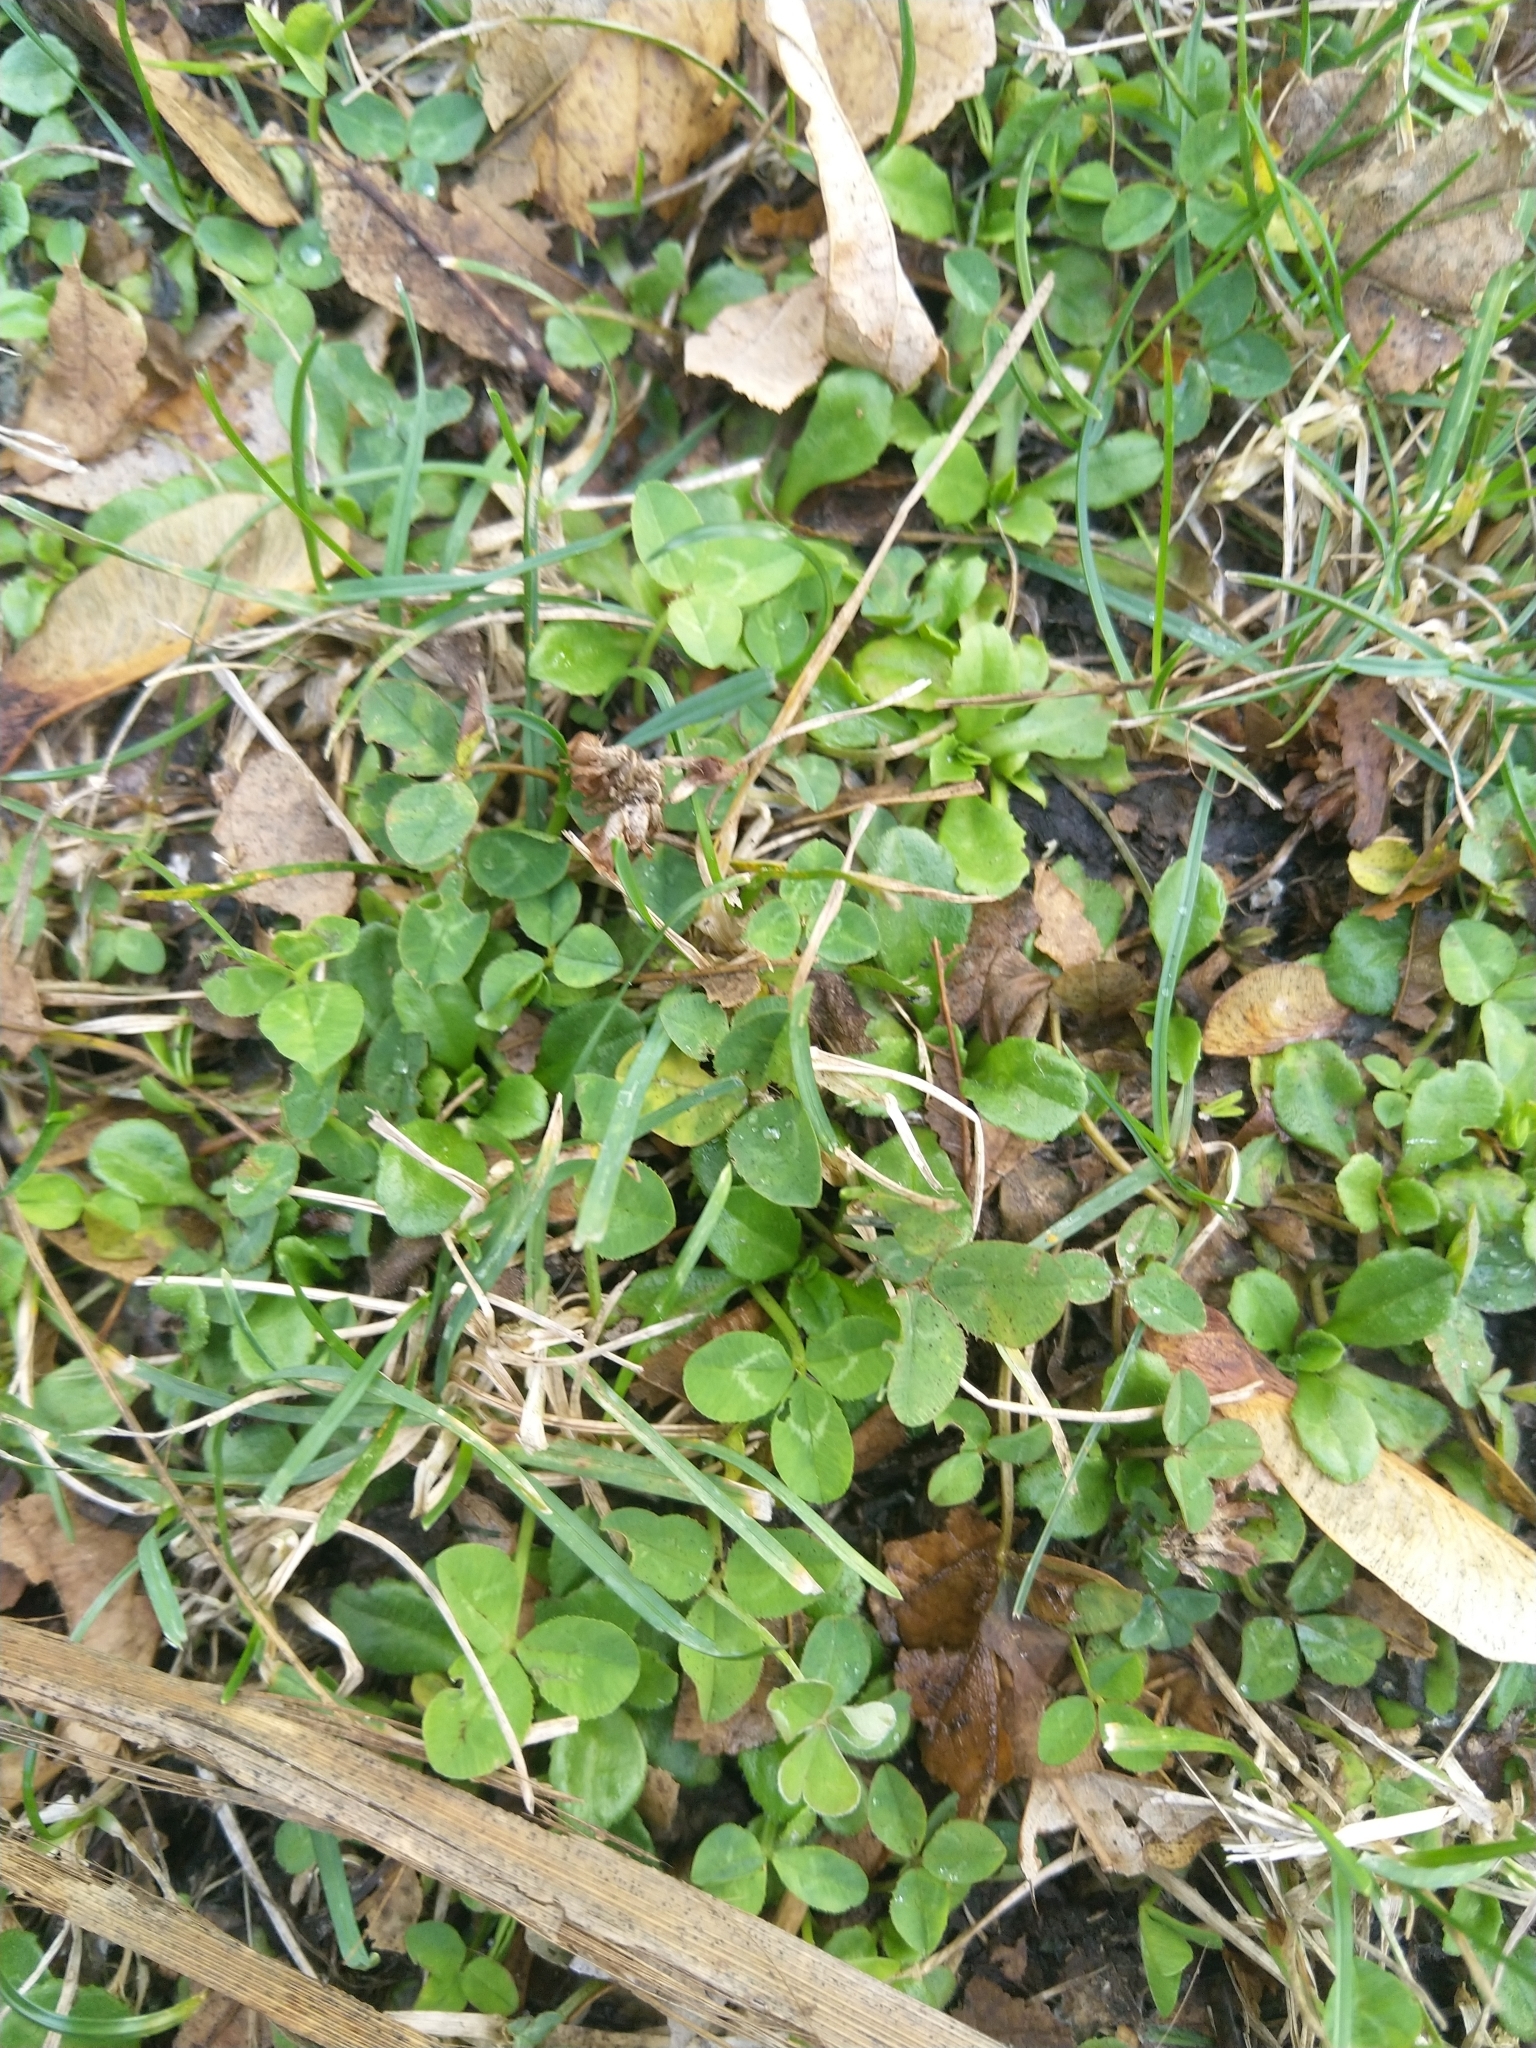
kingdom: Plantae
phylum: Tracheophyta
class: Magnoliopsida
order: Fabales
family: Fabaceae
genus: Trifolium
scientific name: Trifolium repens
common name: White clover
